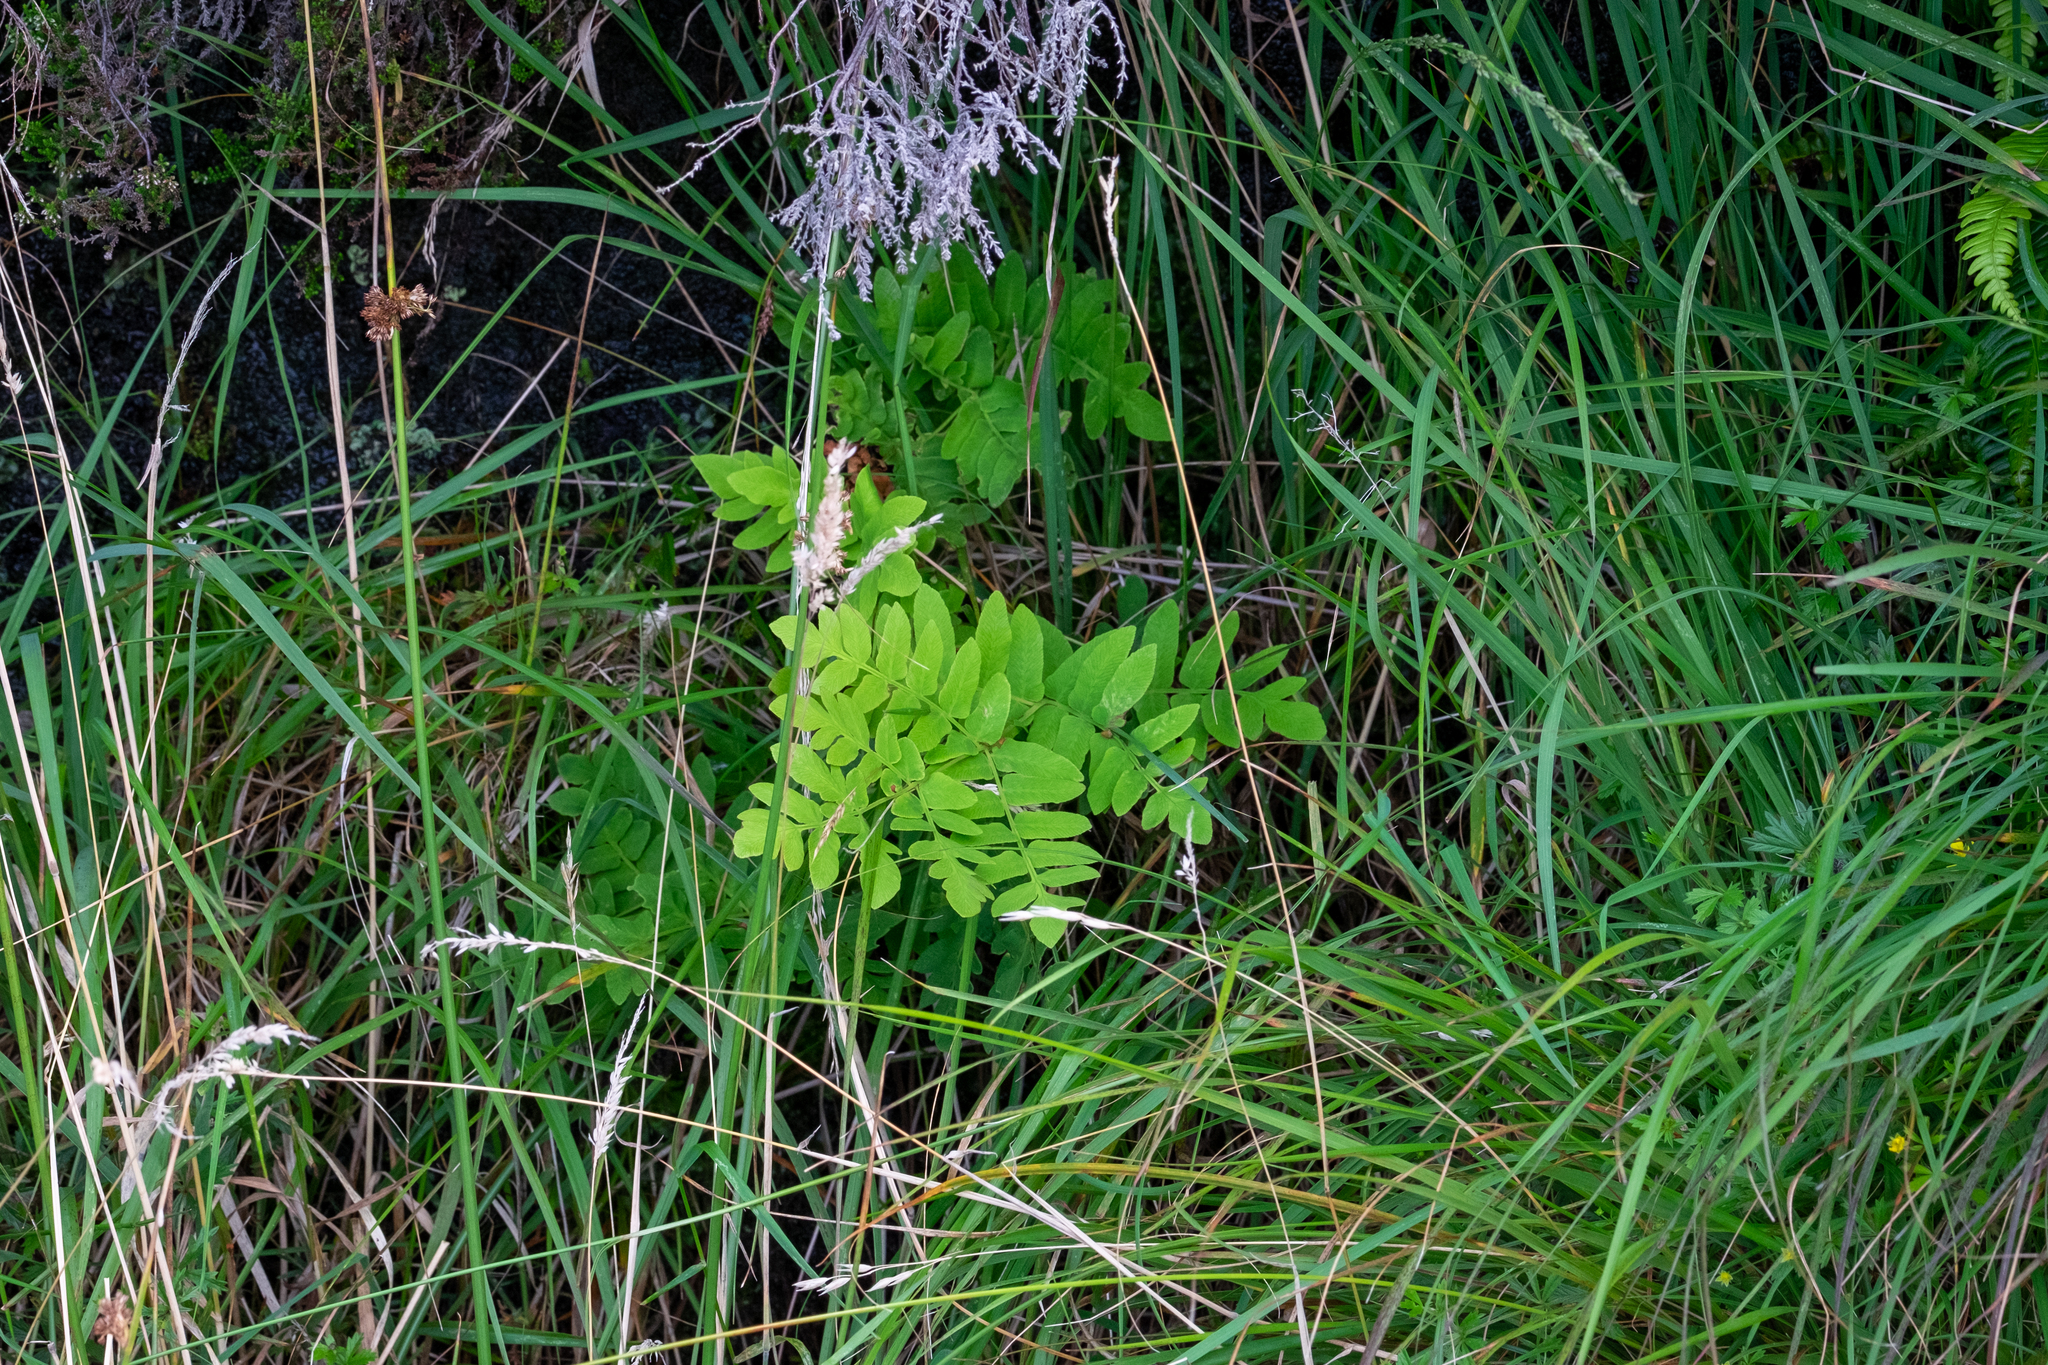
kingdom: Plantae
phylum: Tracheophyta
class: Polypodiopsida
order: Osmundales
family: Osmundaceae
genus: Osmunda
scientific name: Osmunda regalis
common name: Royal fern
